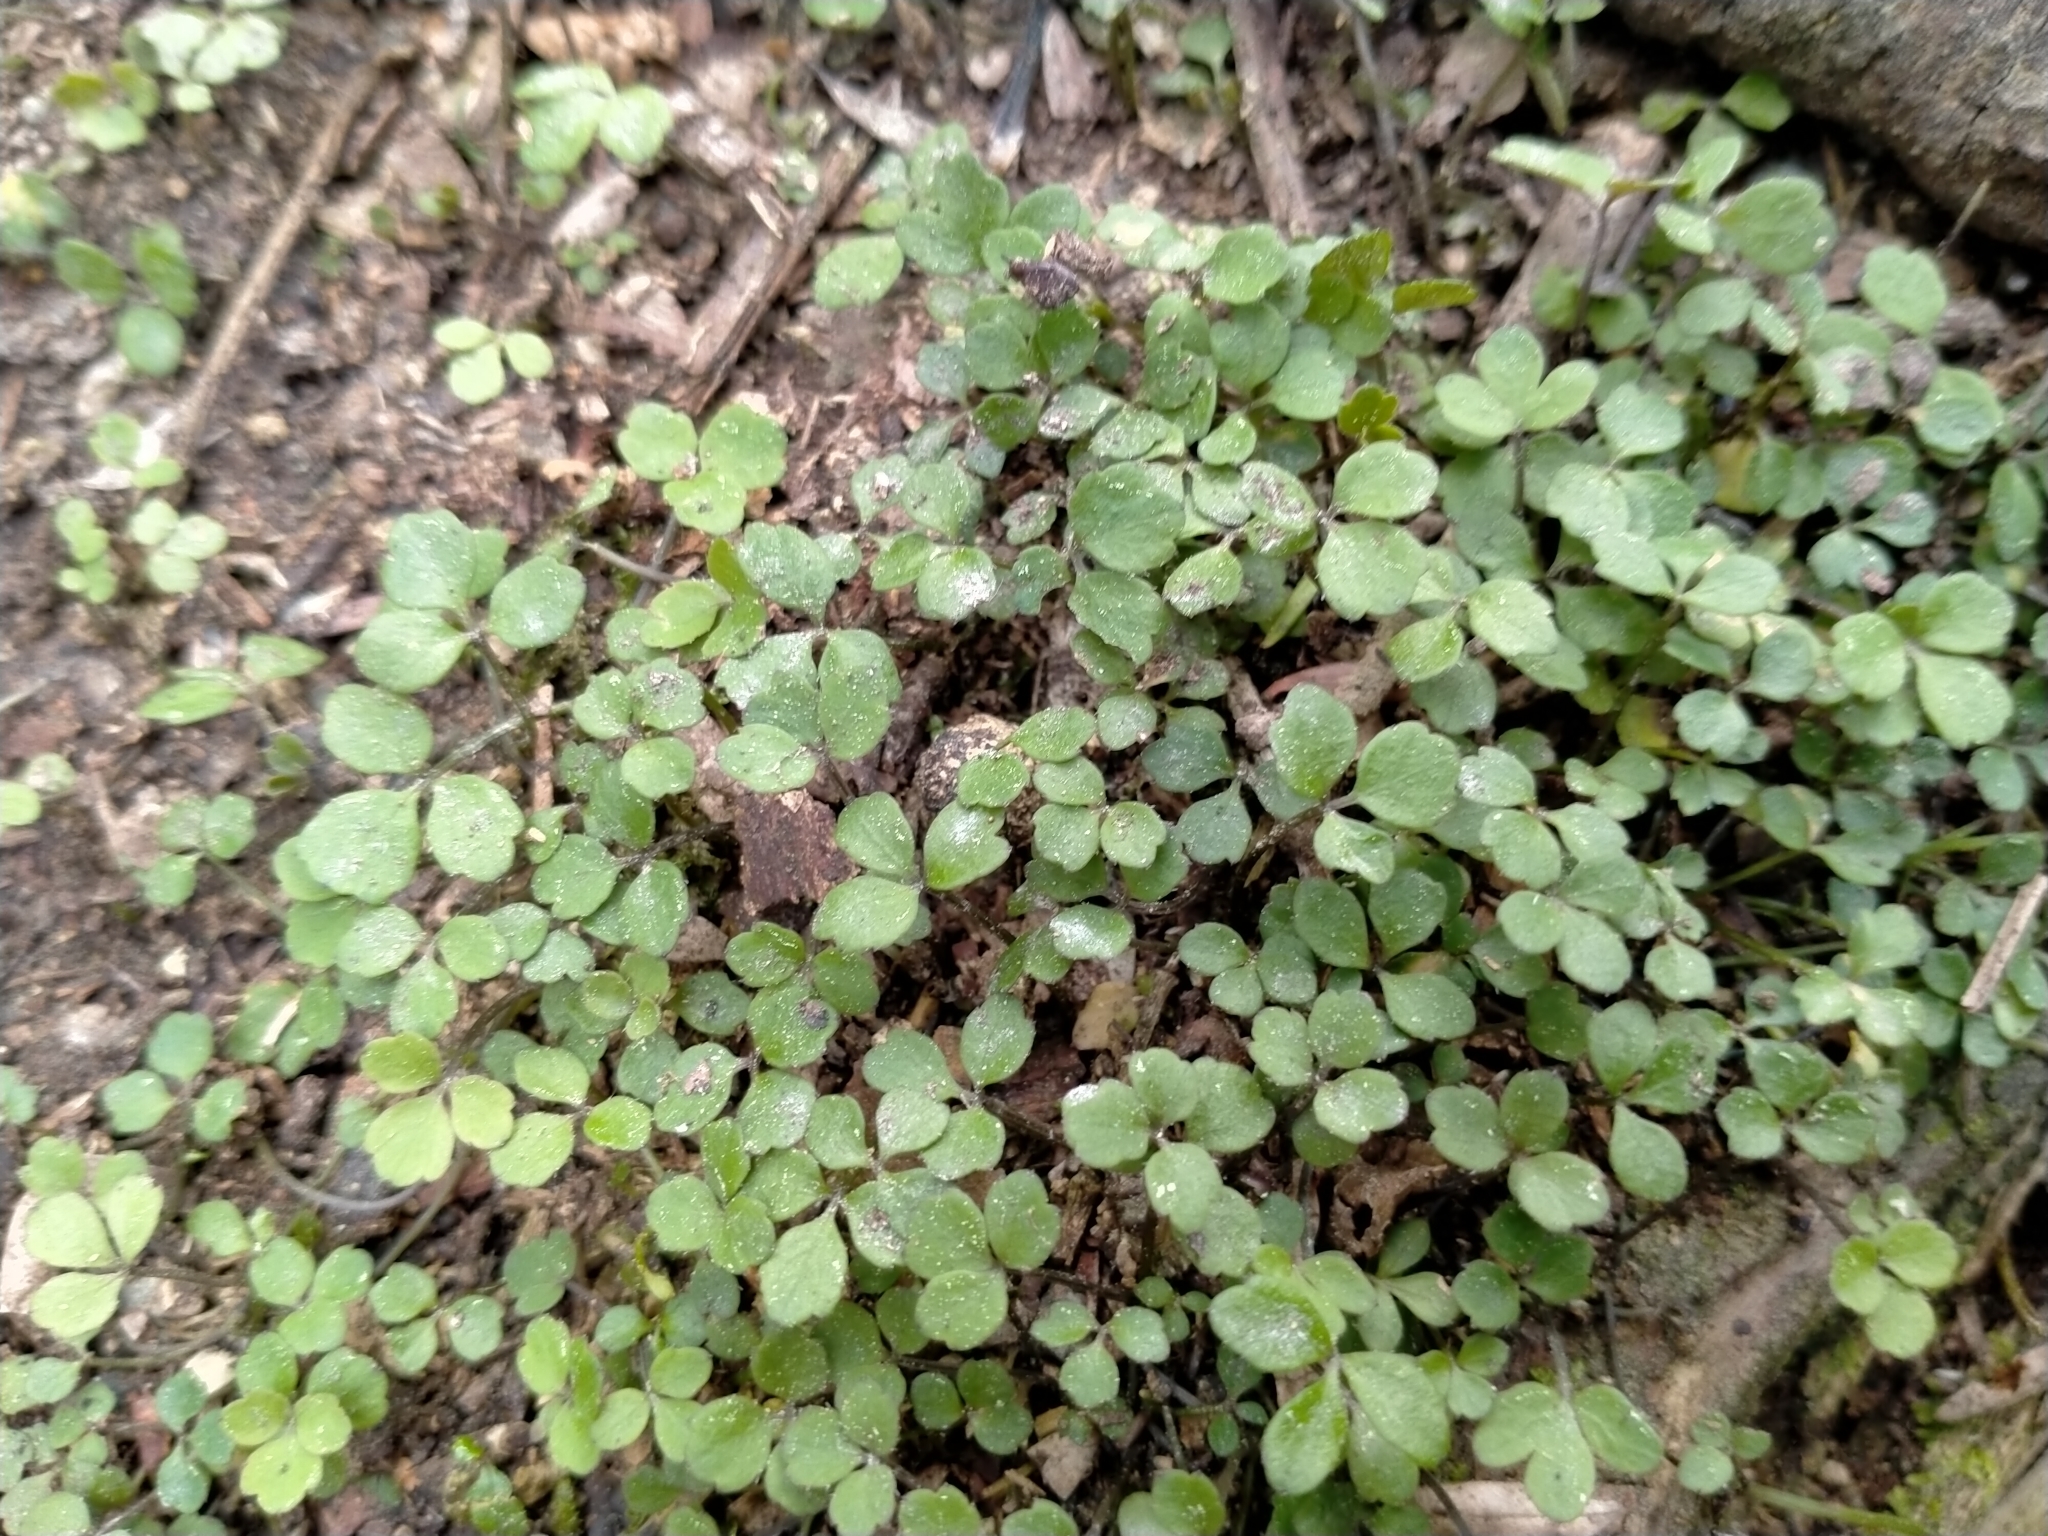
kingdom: Plantae
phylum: Tracheophyta
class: Magnoliopsida
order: Apiales
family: Apiaceae
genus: Azorella
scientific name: Azorella hookeri
